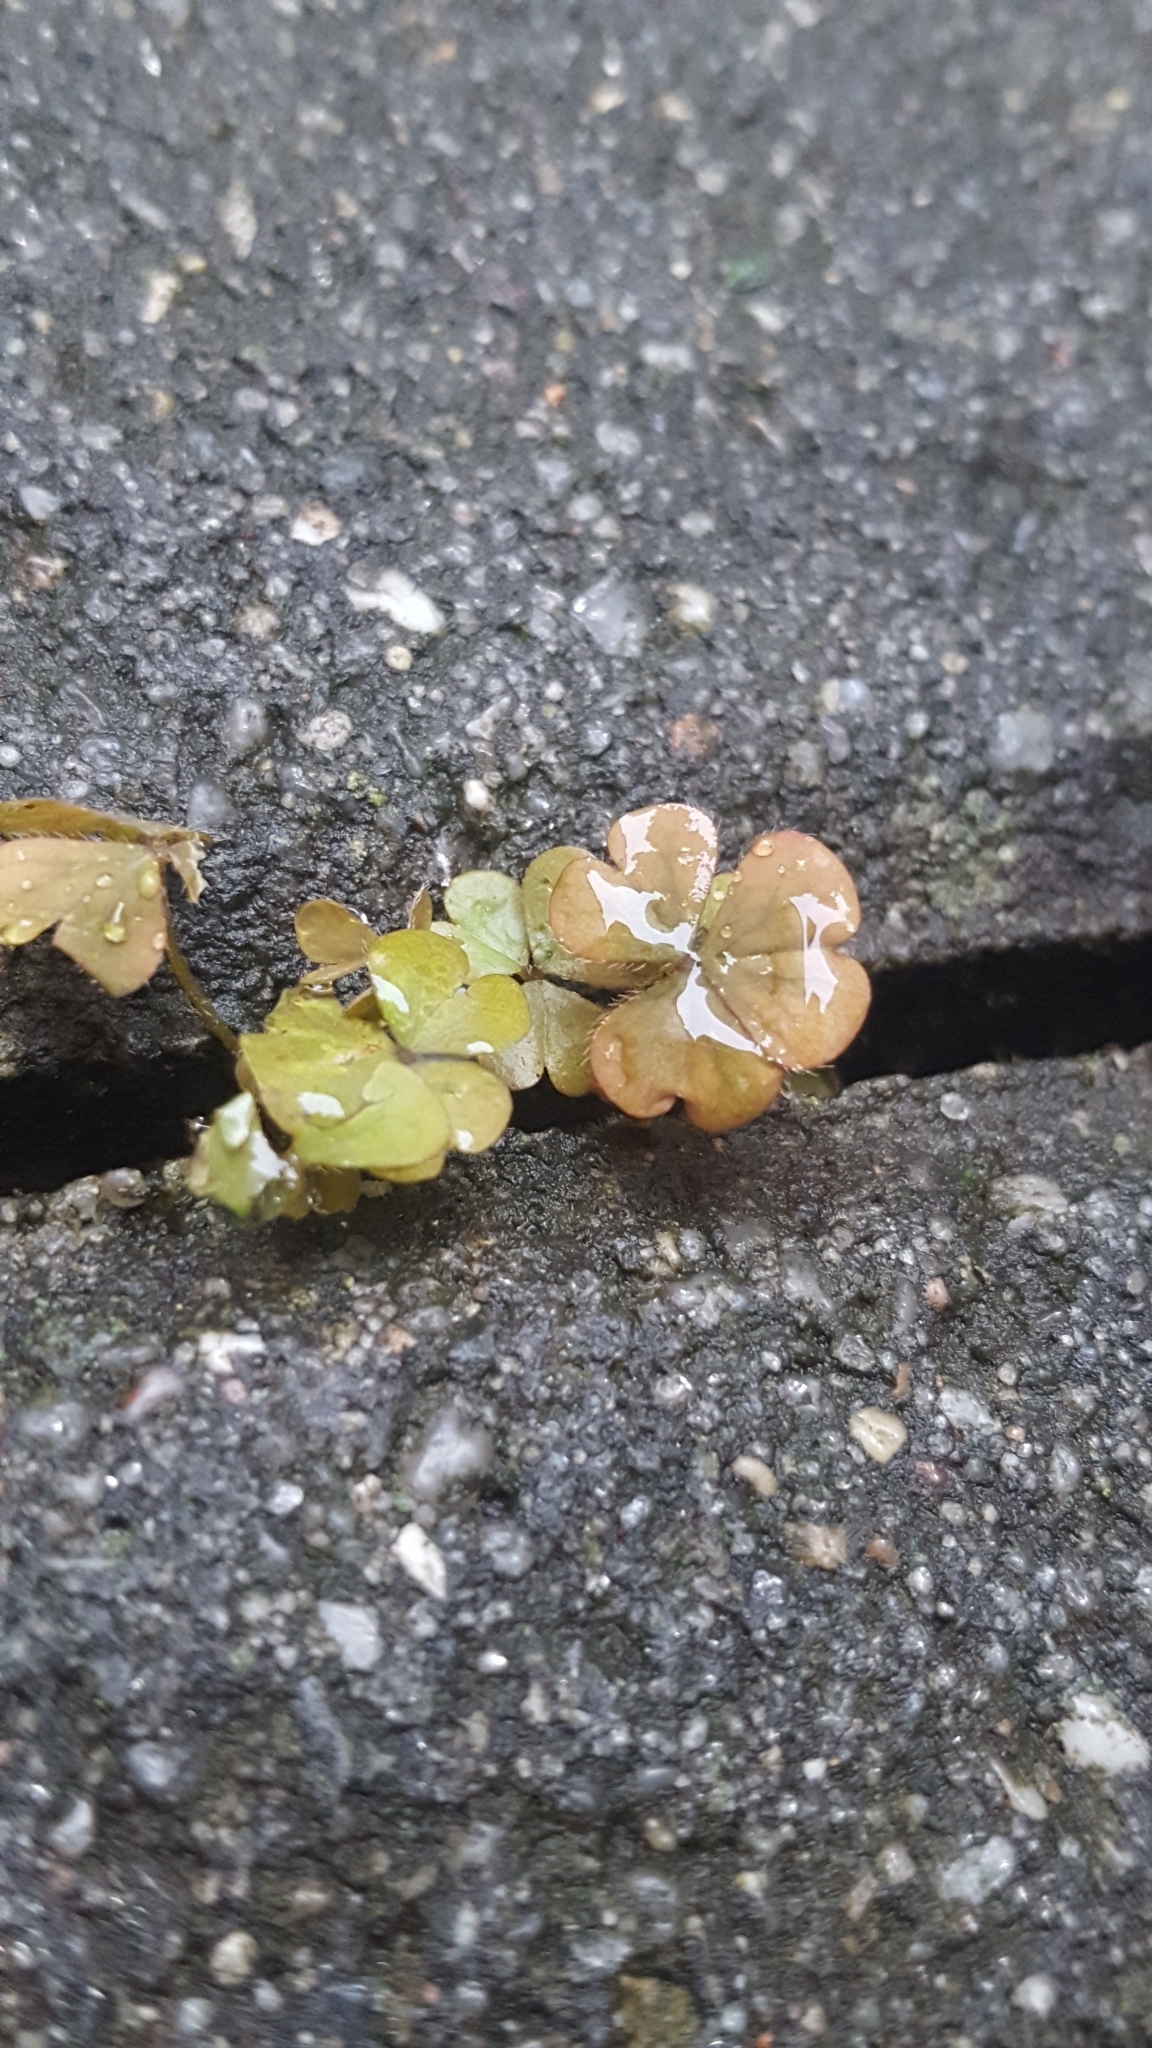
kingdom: Plantae
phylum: Tracheophyta
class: Magnoliopsida
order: Oxalidales
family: Oxalidaceae
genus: Oxalis
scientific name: Oxalis corniculata
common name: Procumbent yellow-sorrel
